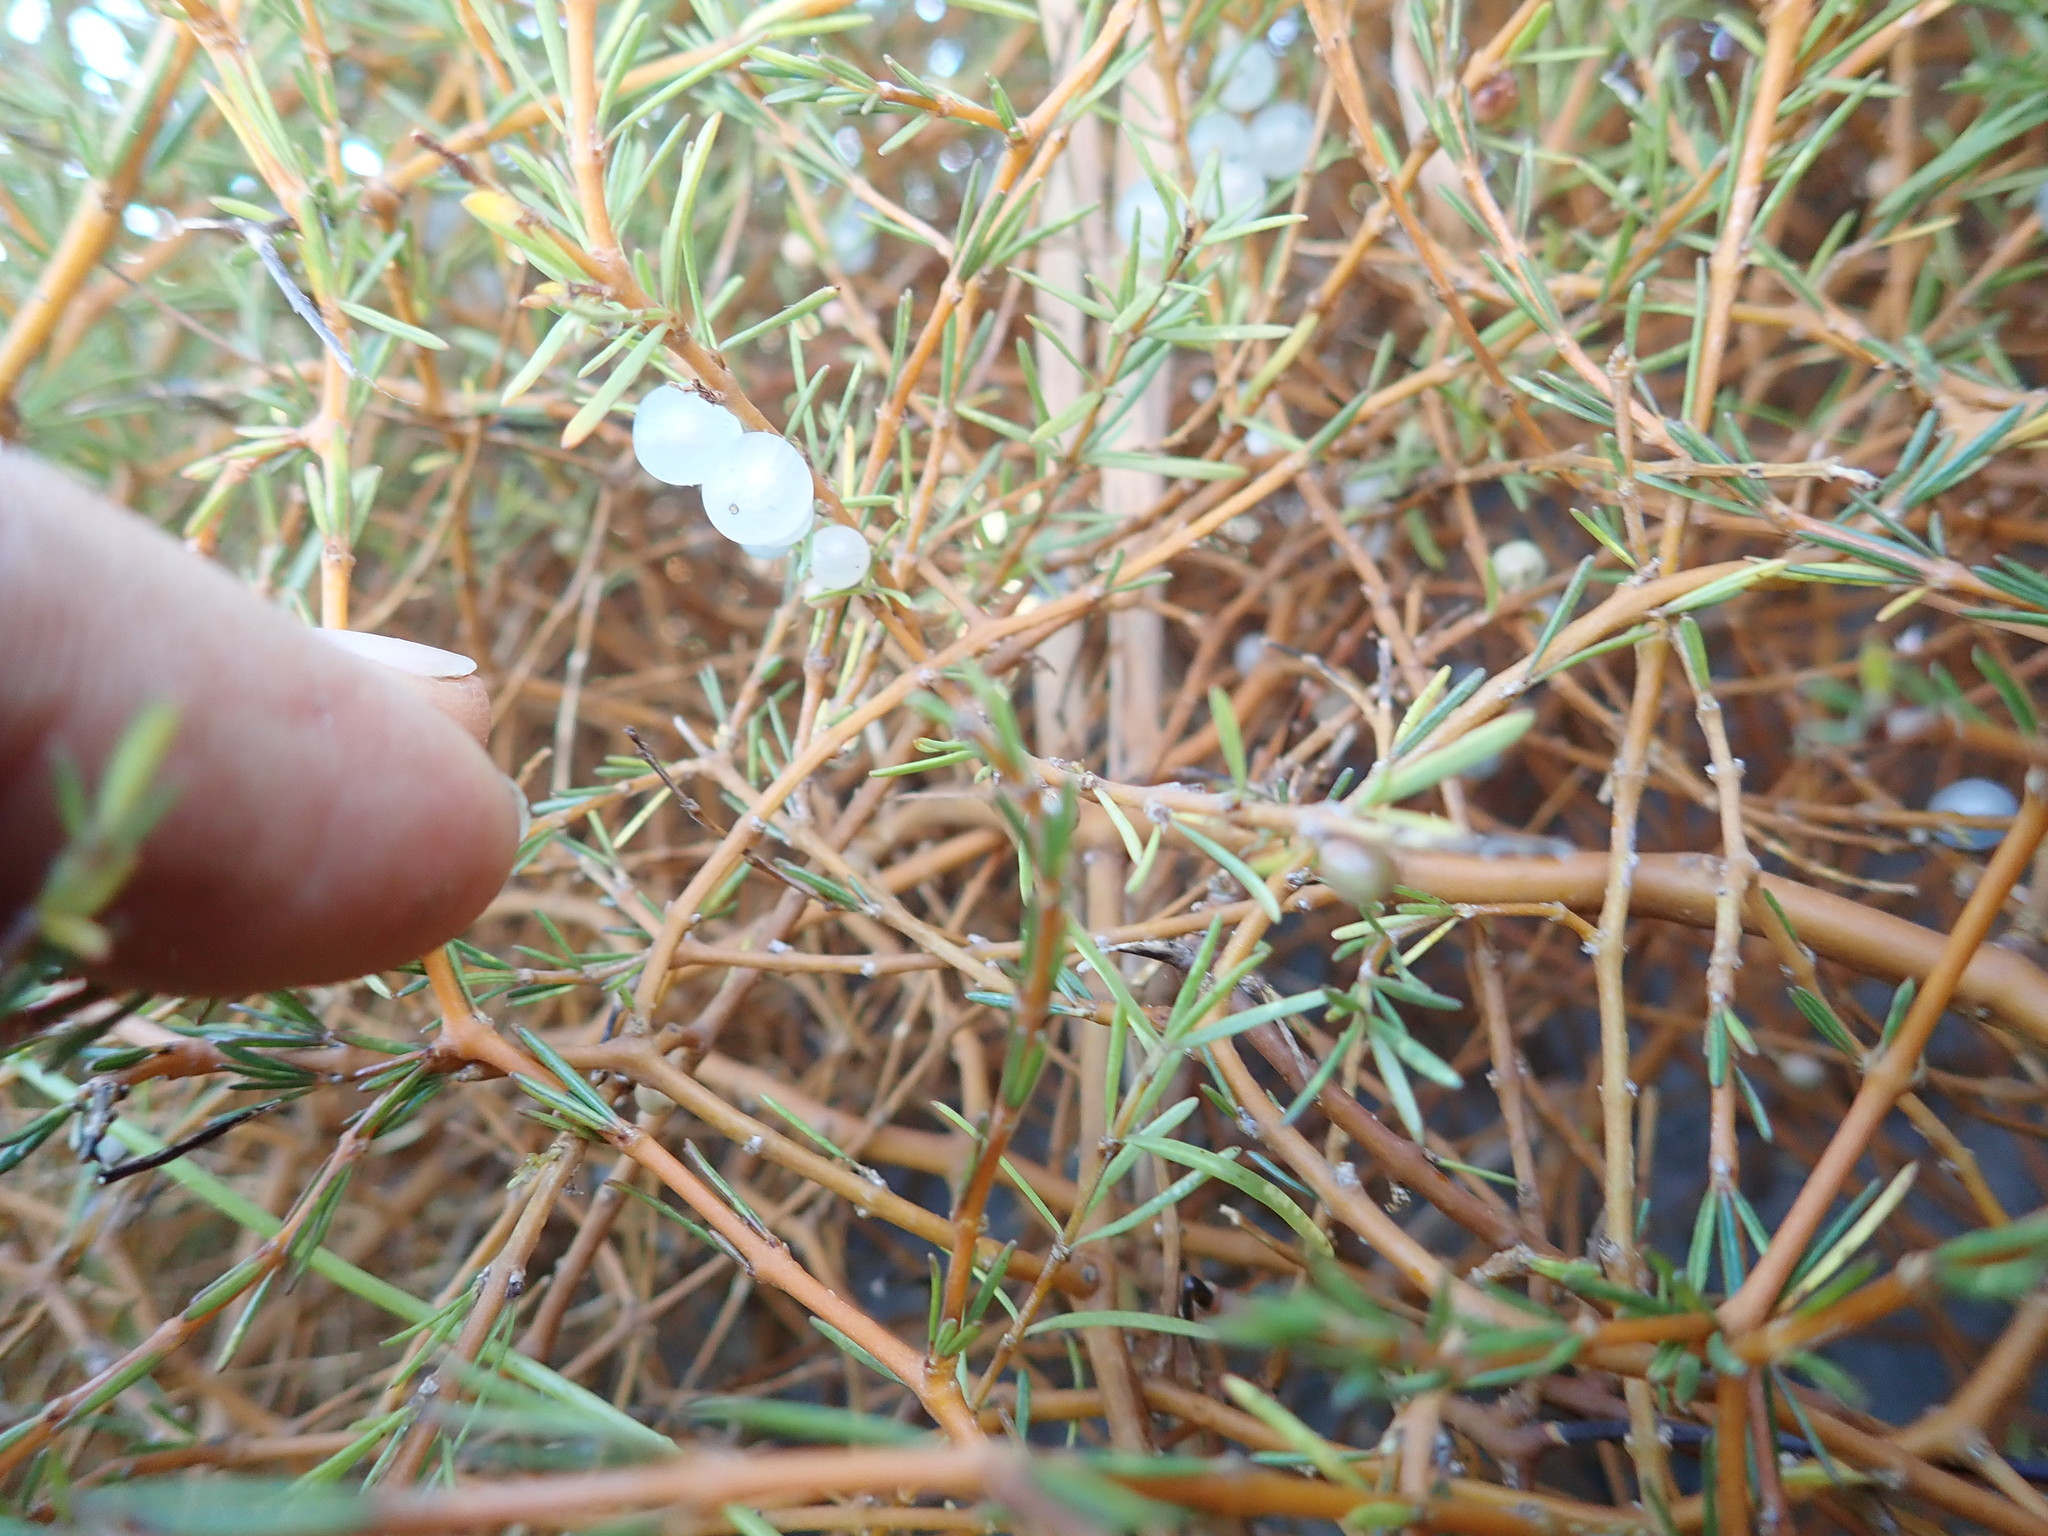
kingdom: Plantae
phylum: Tracheophyta
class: Magnoliopsida
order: Gentianales
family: Rubiaceae
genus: Coprosma
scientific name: Coprosma acerosa
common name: Sand coprosma
